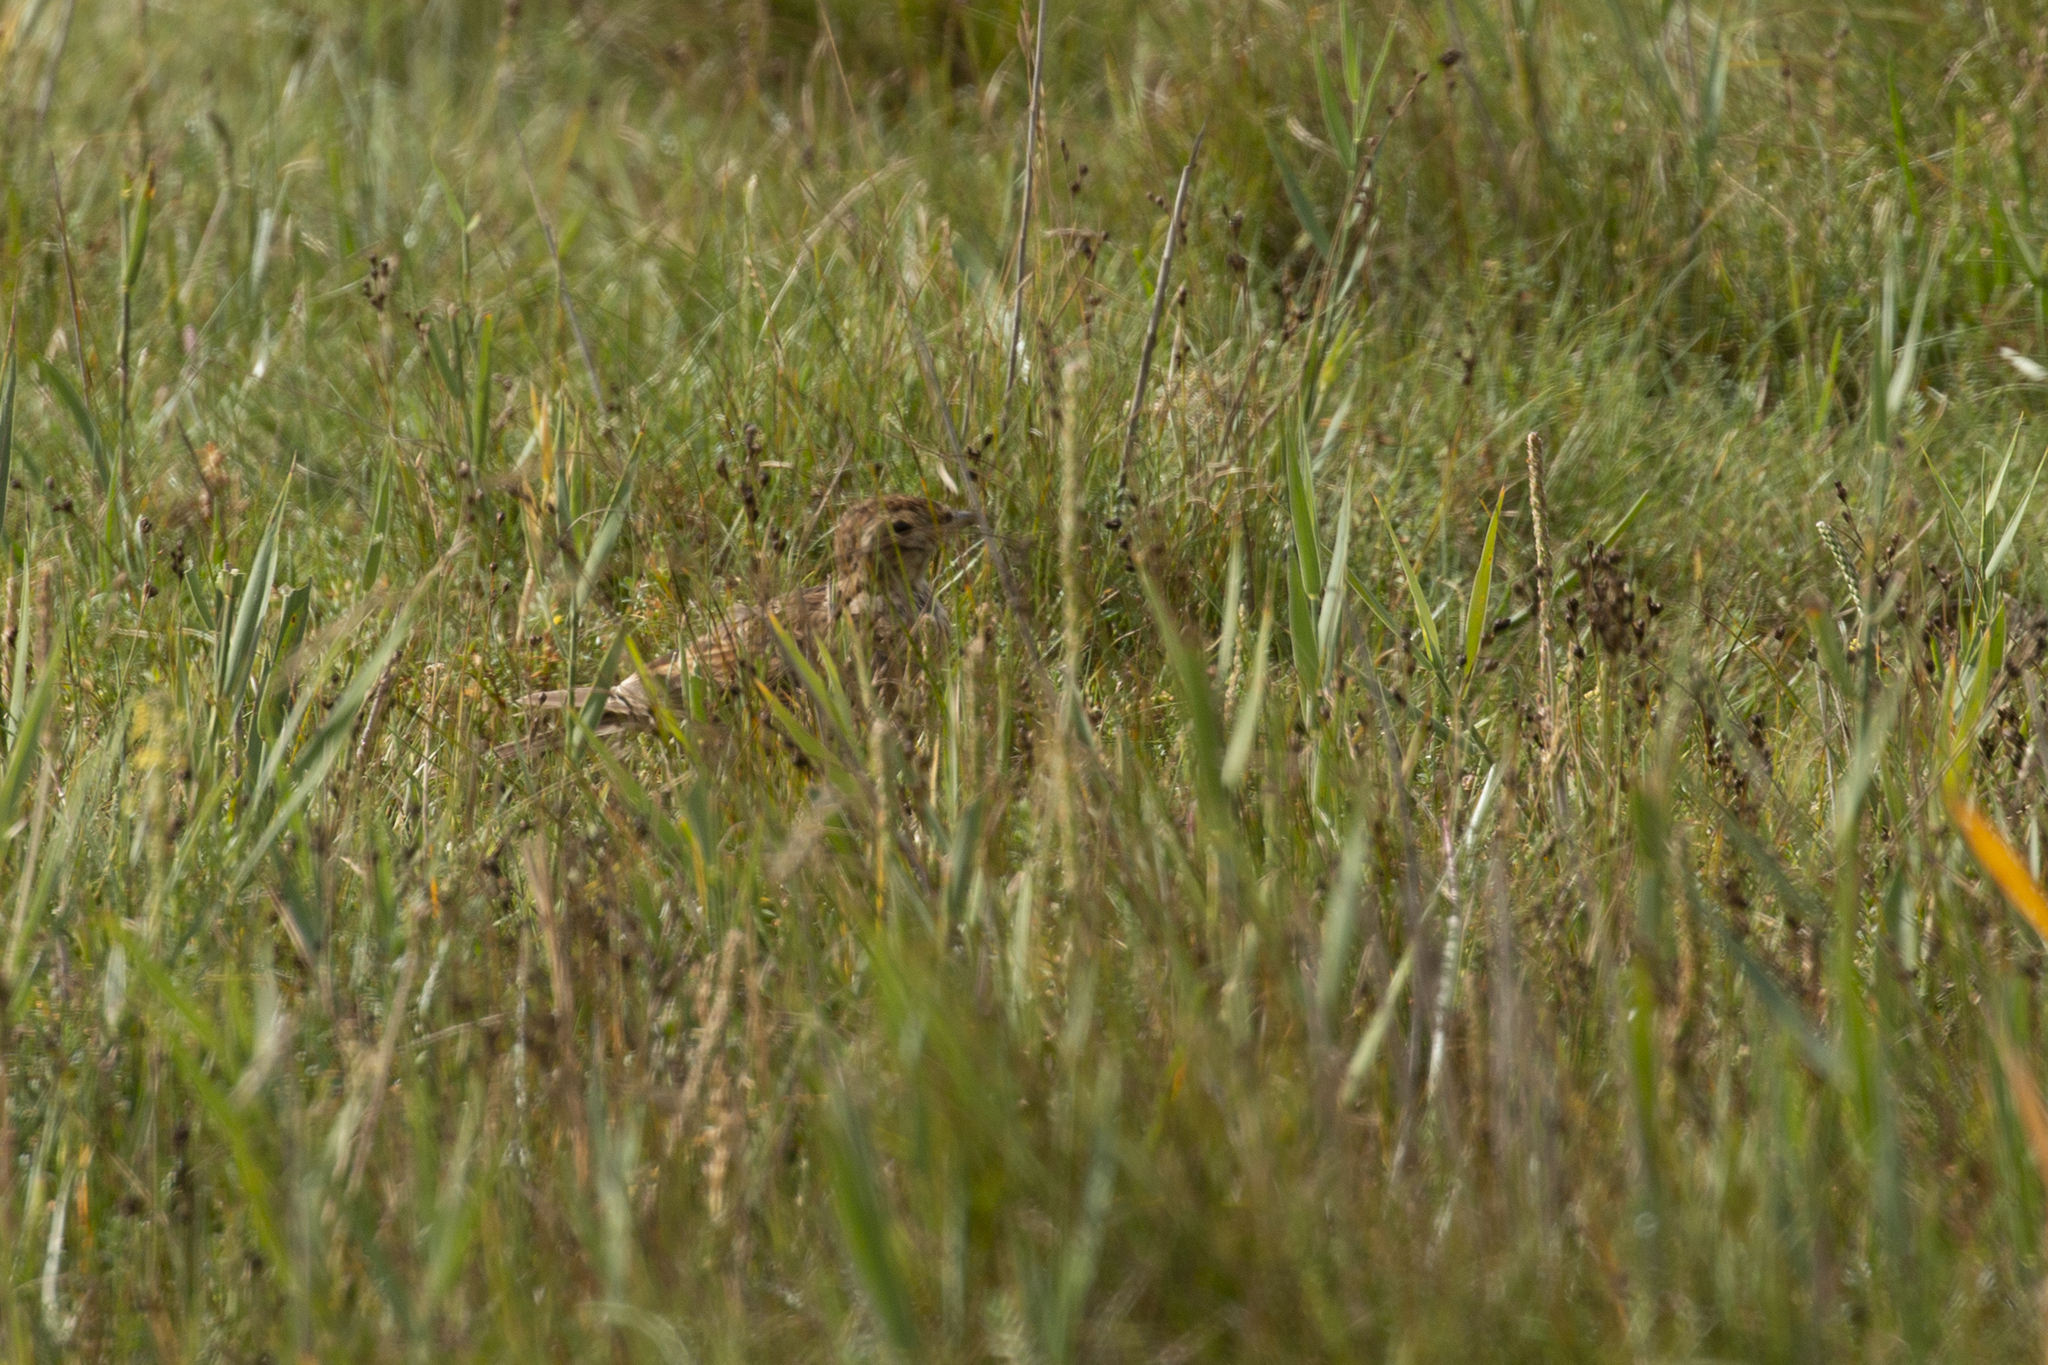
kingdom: Animalia
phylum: Chordata
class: Aves
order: Passeriformes
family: Alaudidae
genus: Alauda
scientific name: Alauda arvensis
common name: Eurasian skylark
